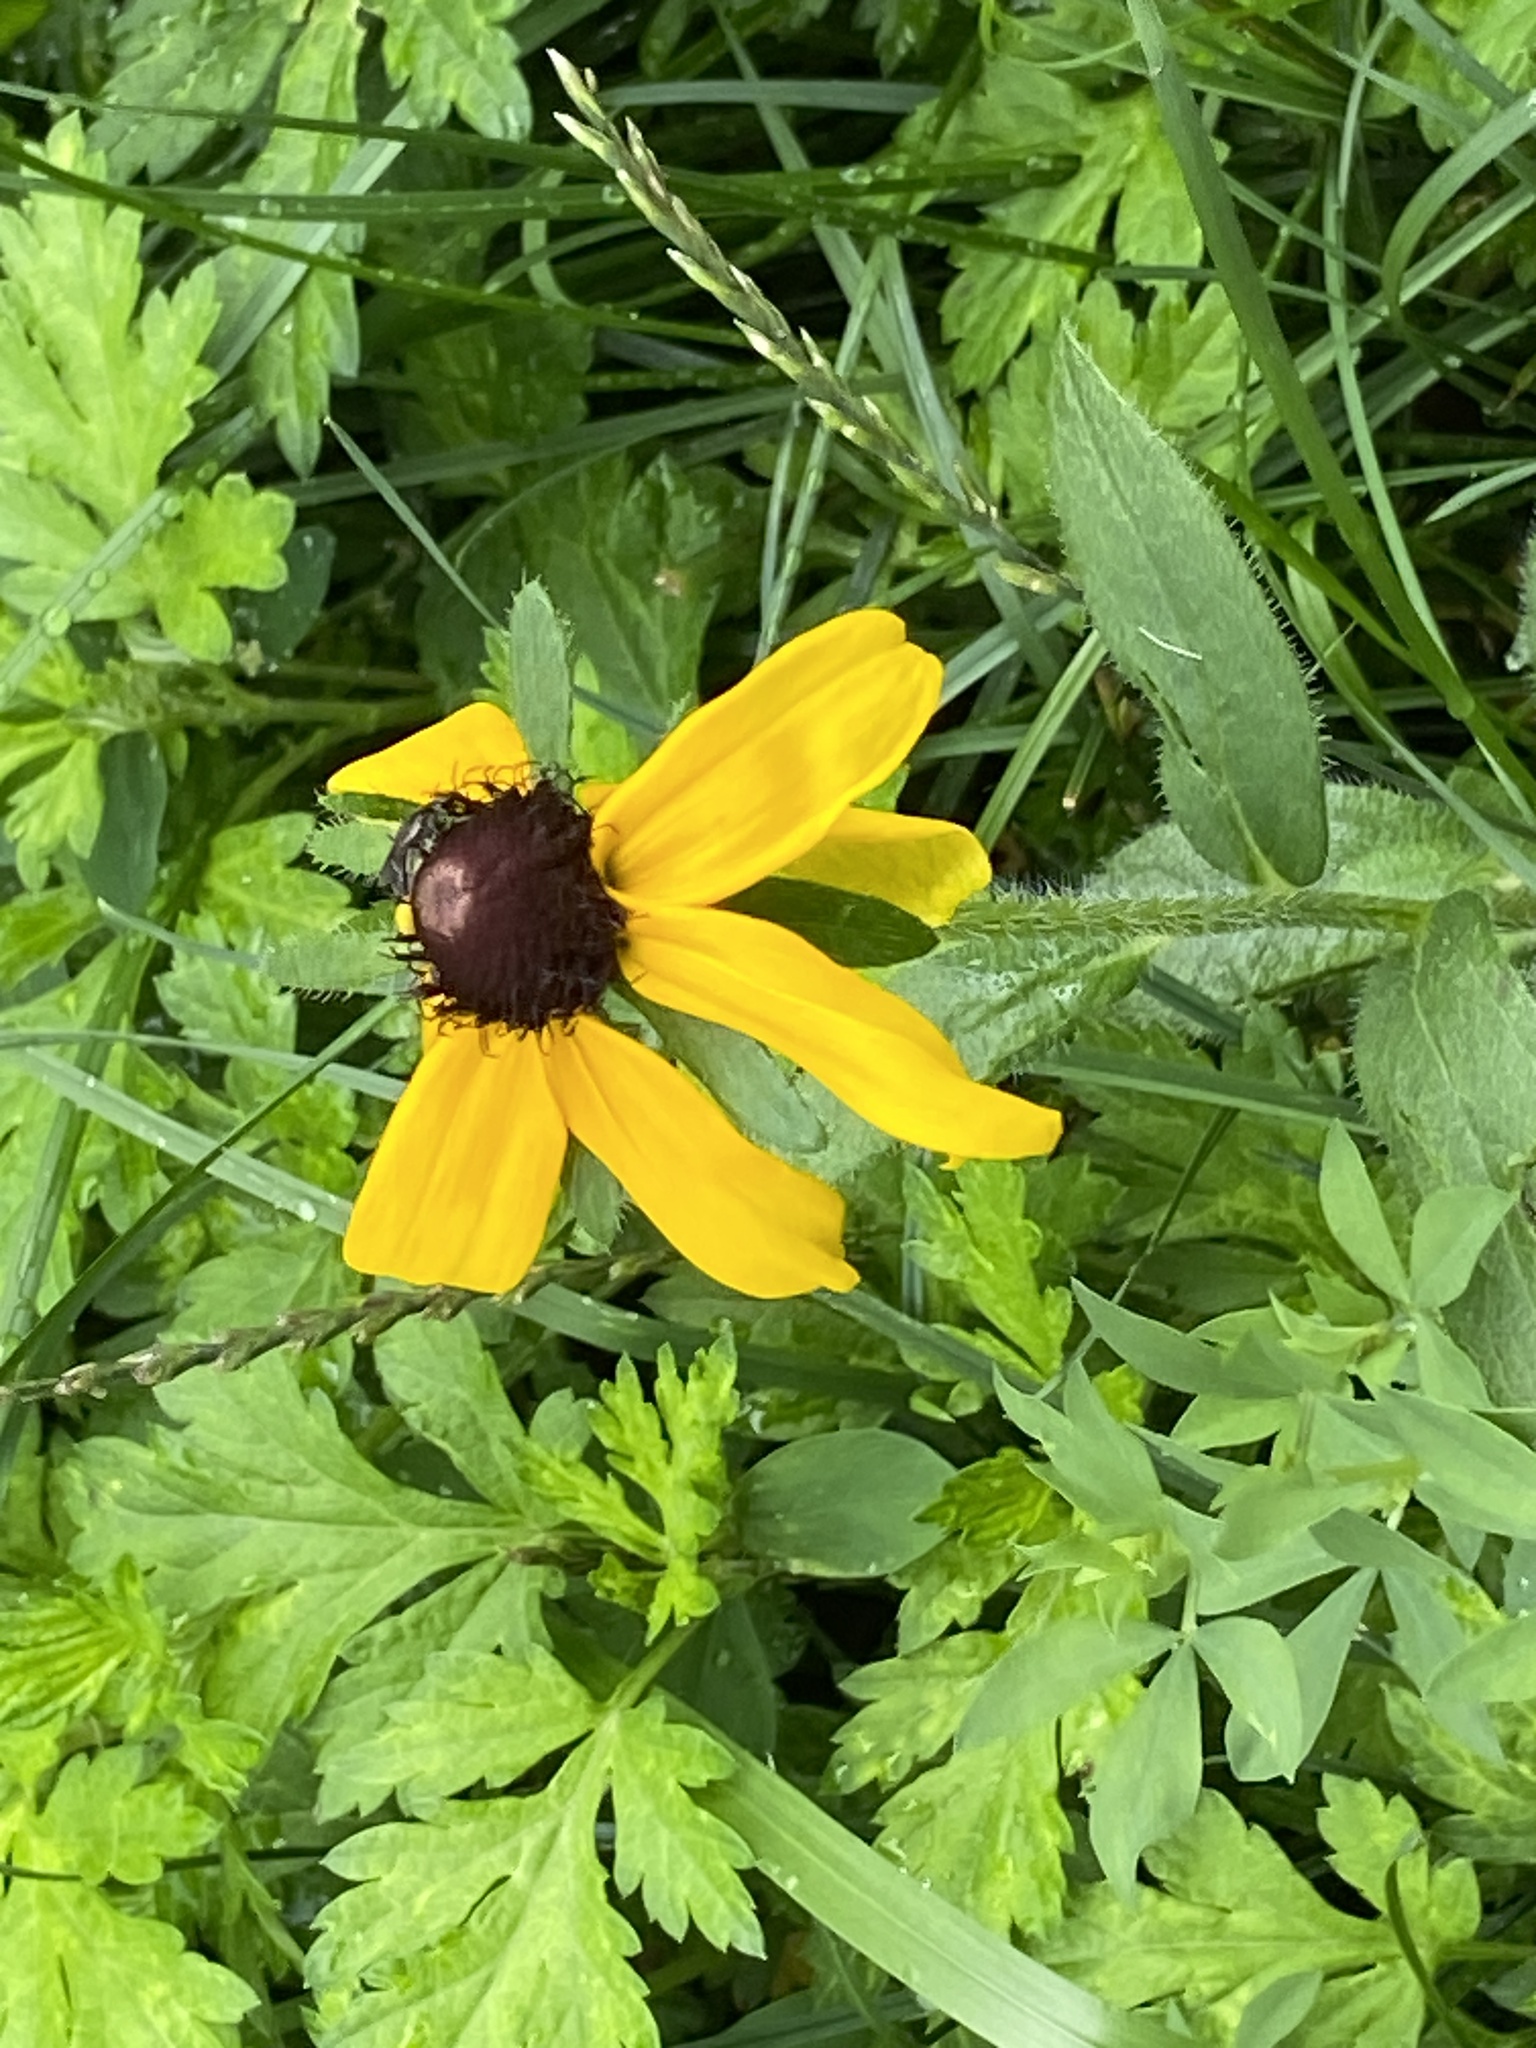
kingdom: Plantae
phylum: Tracheophyta
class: Magnoliopsida
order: Asterales
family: Asteraceae
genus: Rudbeckia
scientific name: Rudbeckia hirta
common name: Black-eyed-susan
